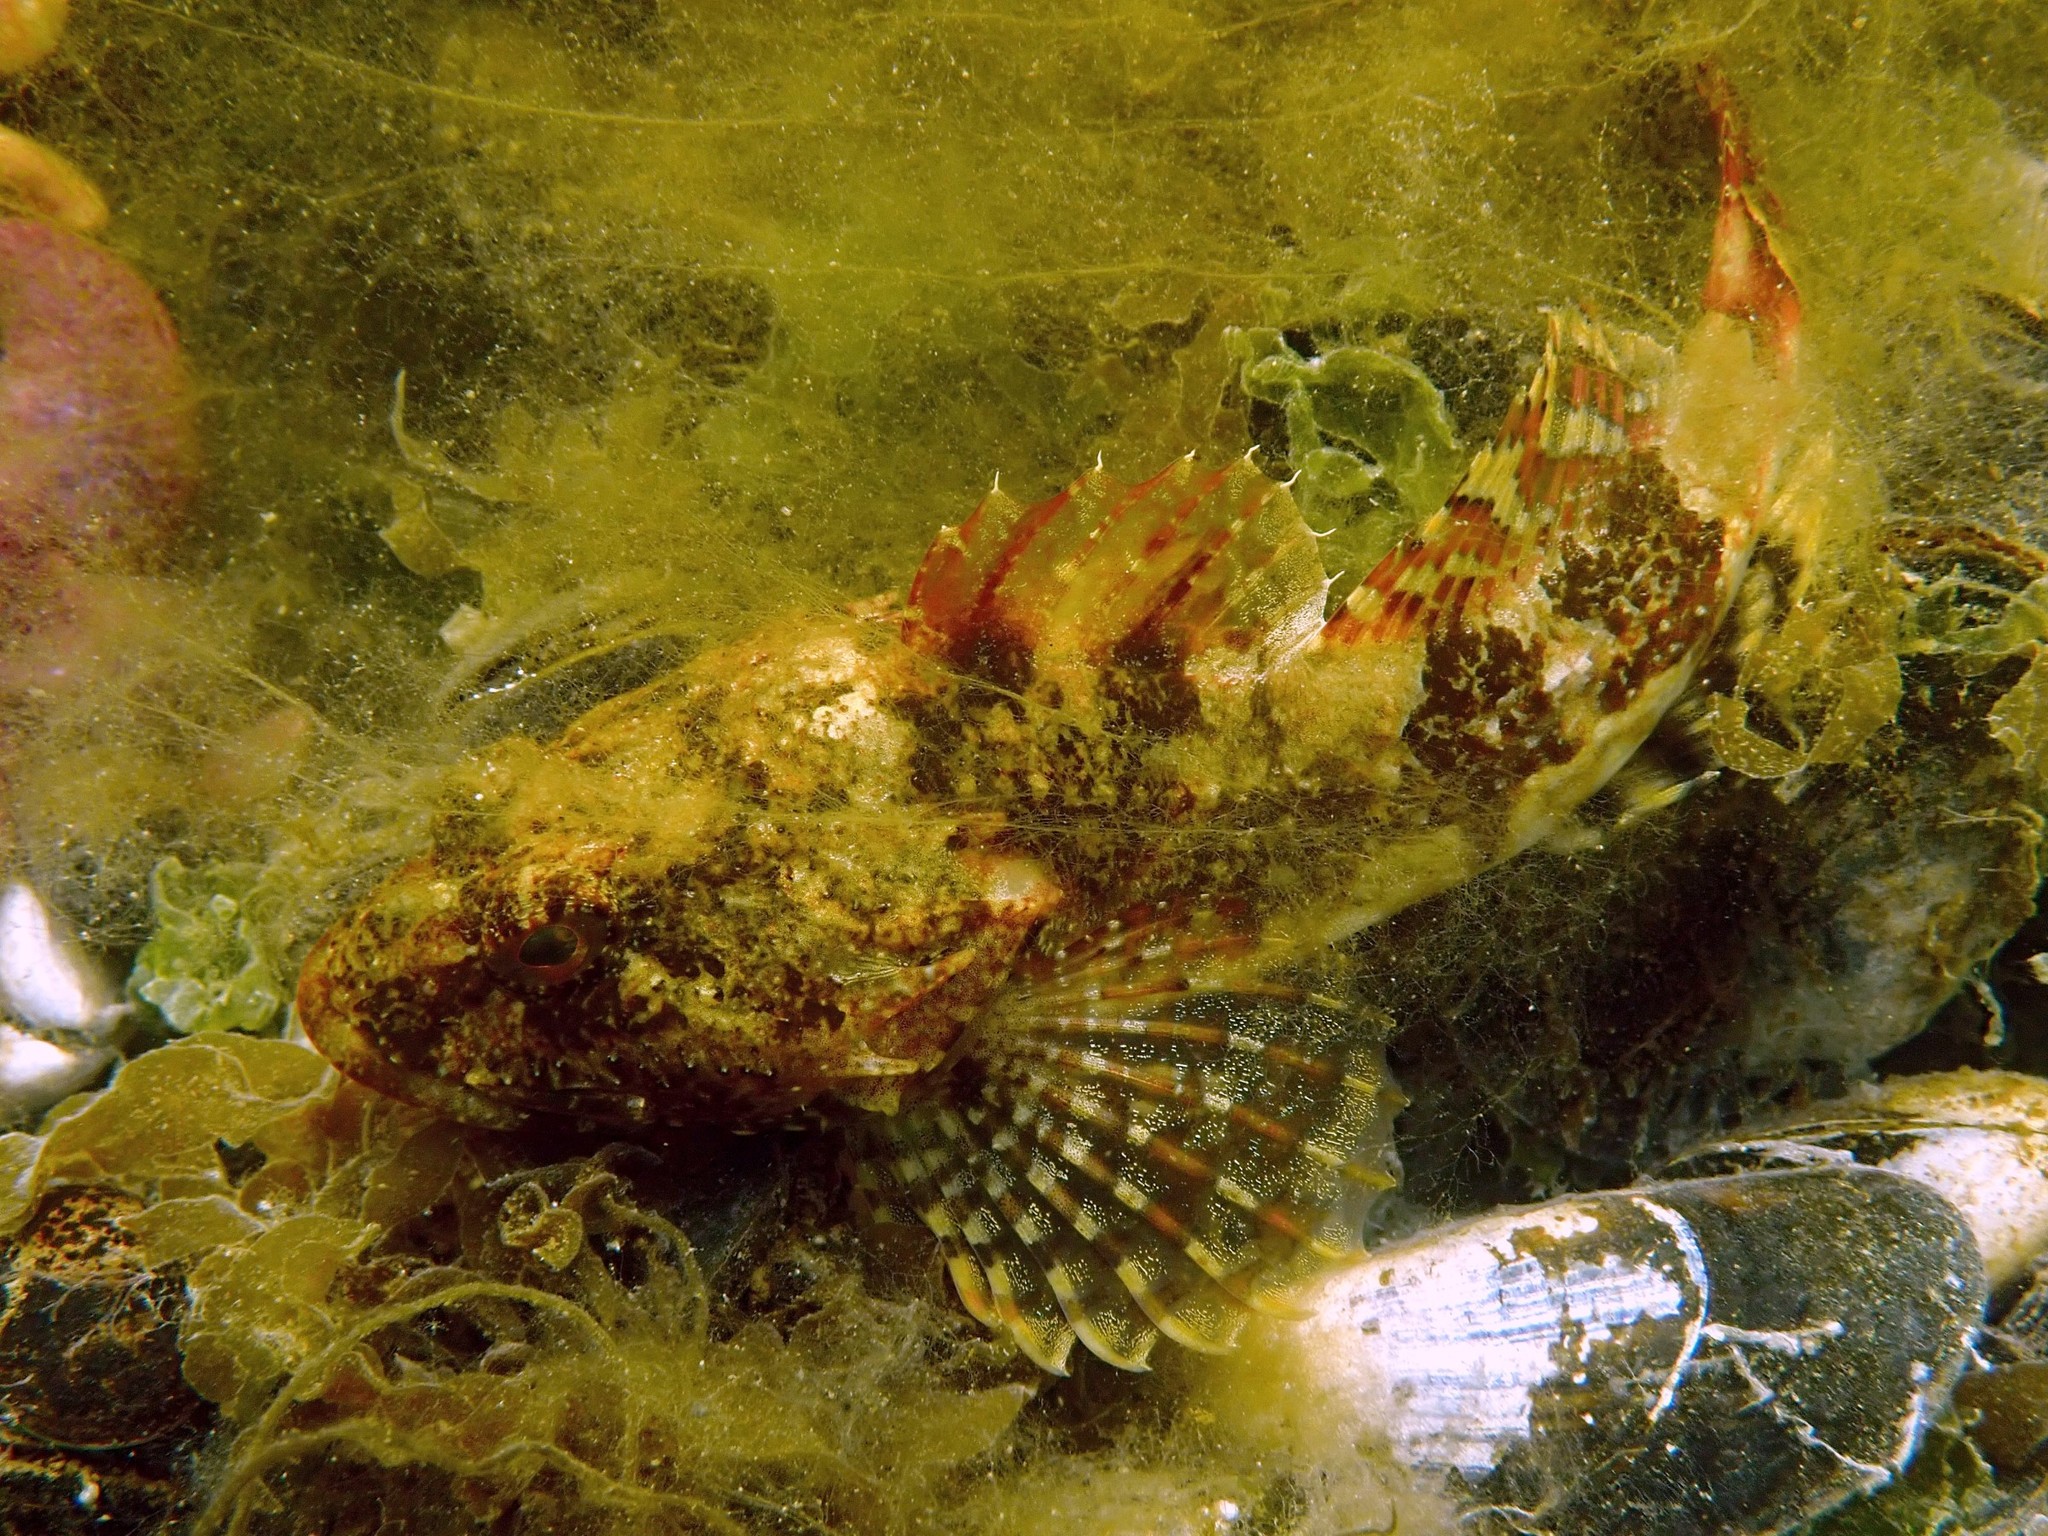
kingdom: Animalia
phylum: Chordata
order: Scorpaeniformes
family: Cottidae
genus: Myoxocephalus
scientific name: Myoxocephalus scorpius
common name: Shorthorn sculpin
